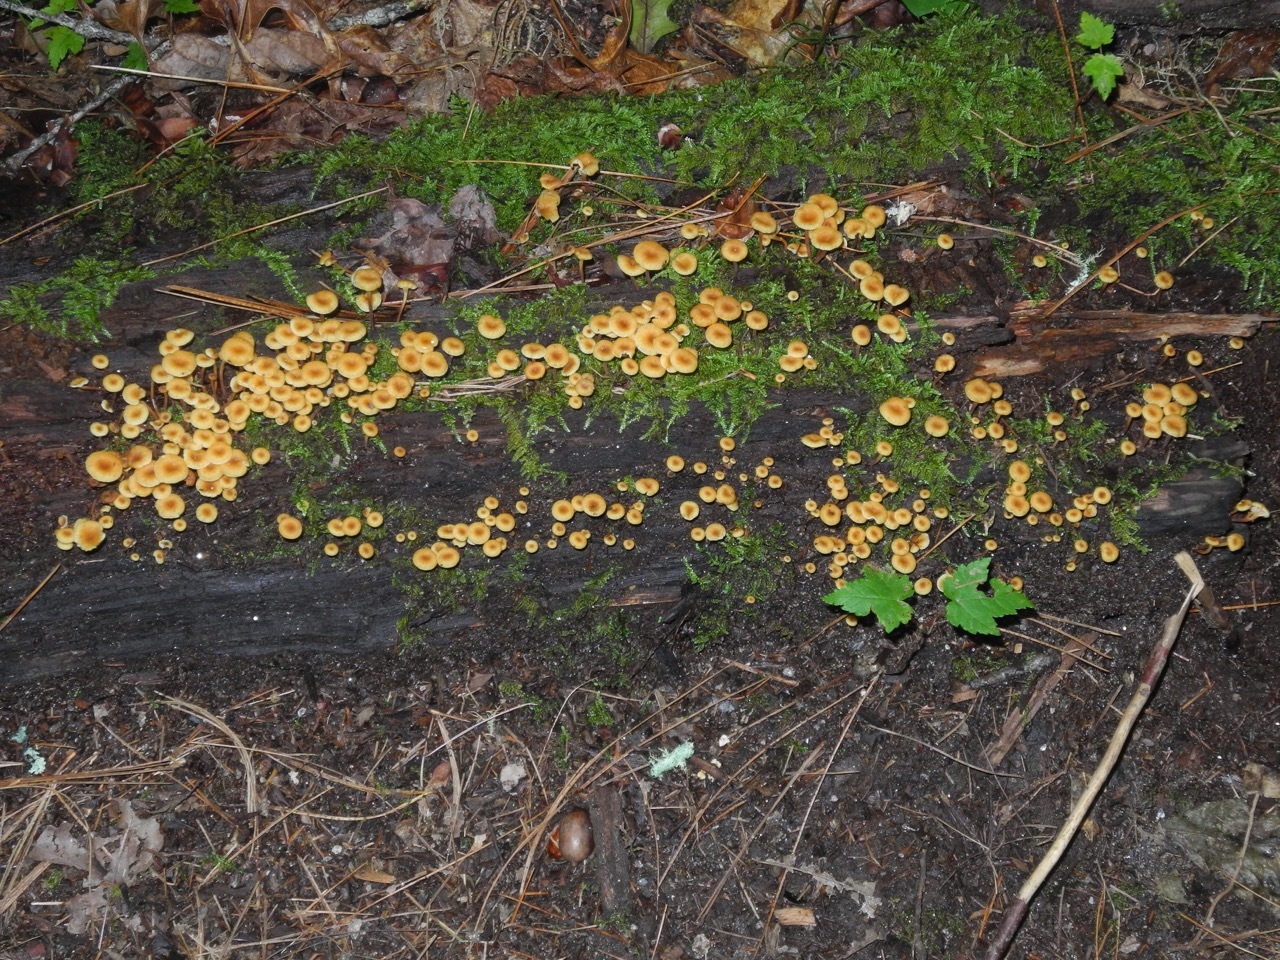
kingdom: Fungi
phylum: Basidiomycota
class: Agaricomycetes
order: Agaricales
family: Mycenaceae
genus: Xeromphalina
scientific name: Xeromphalina campanella
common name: Pinewood gingertail
